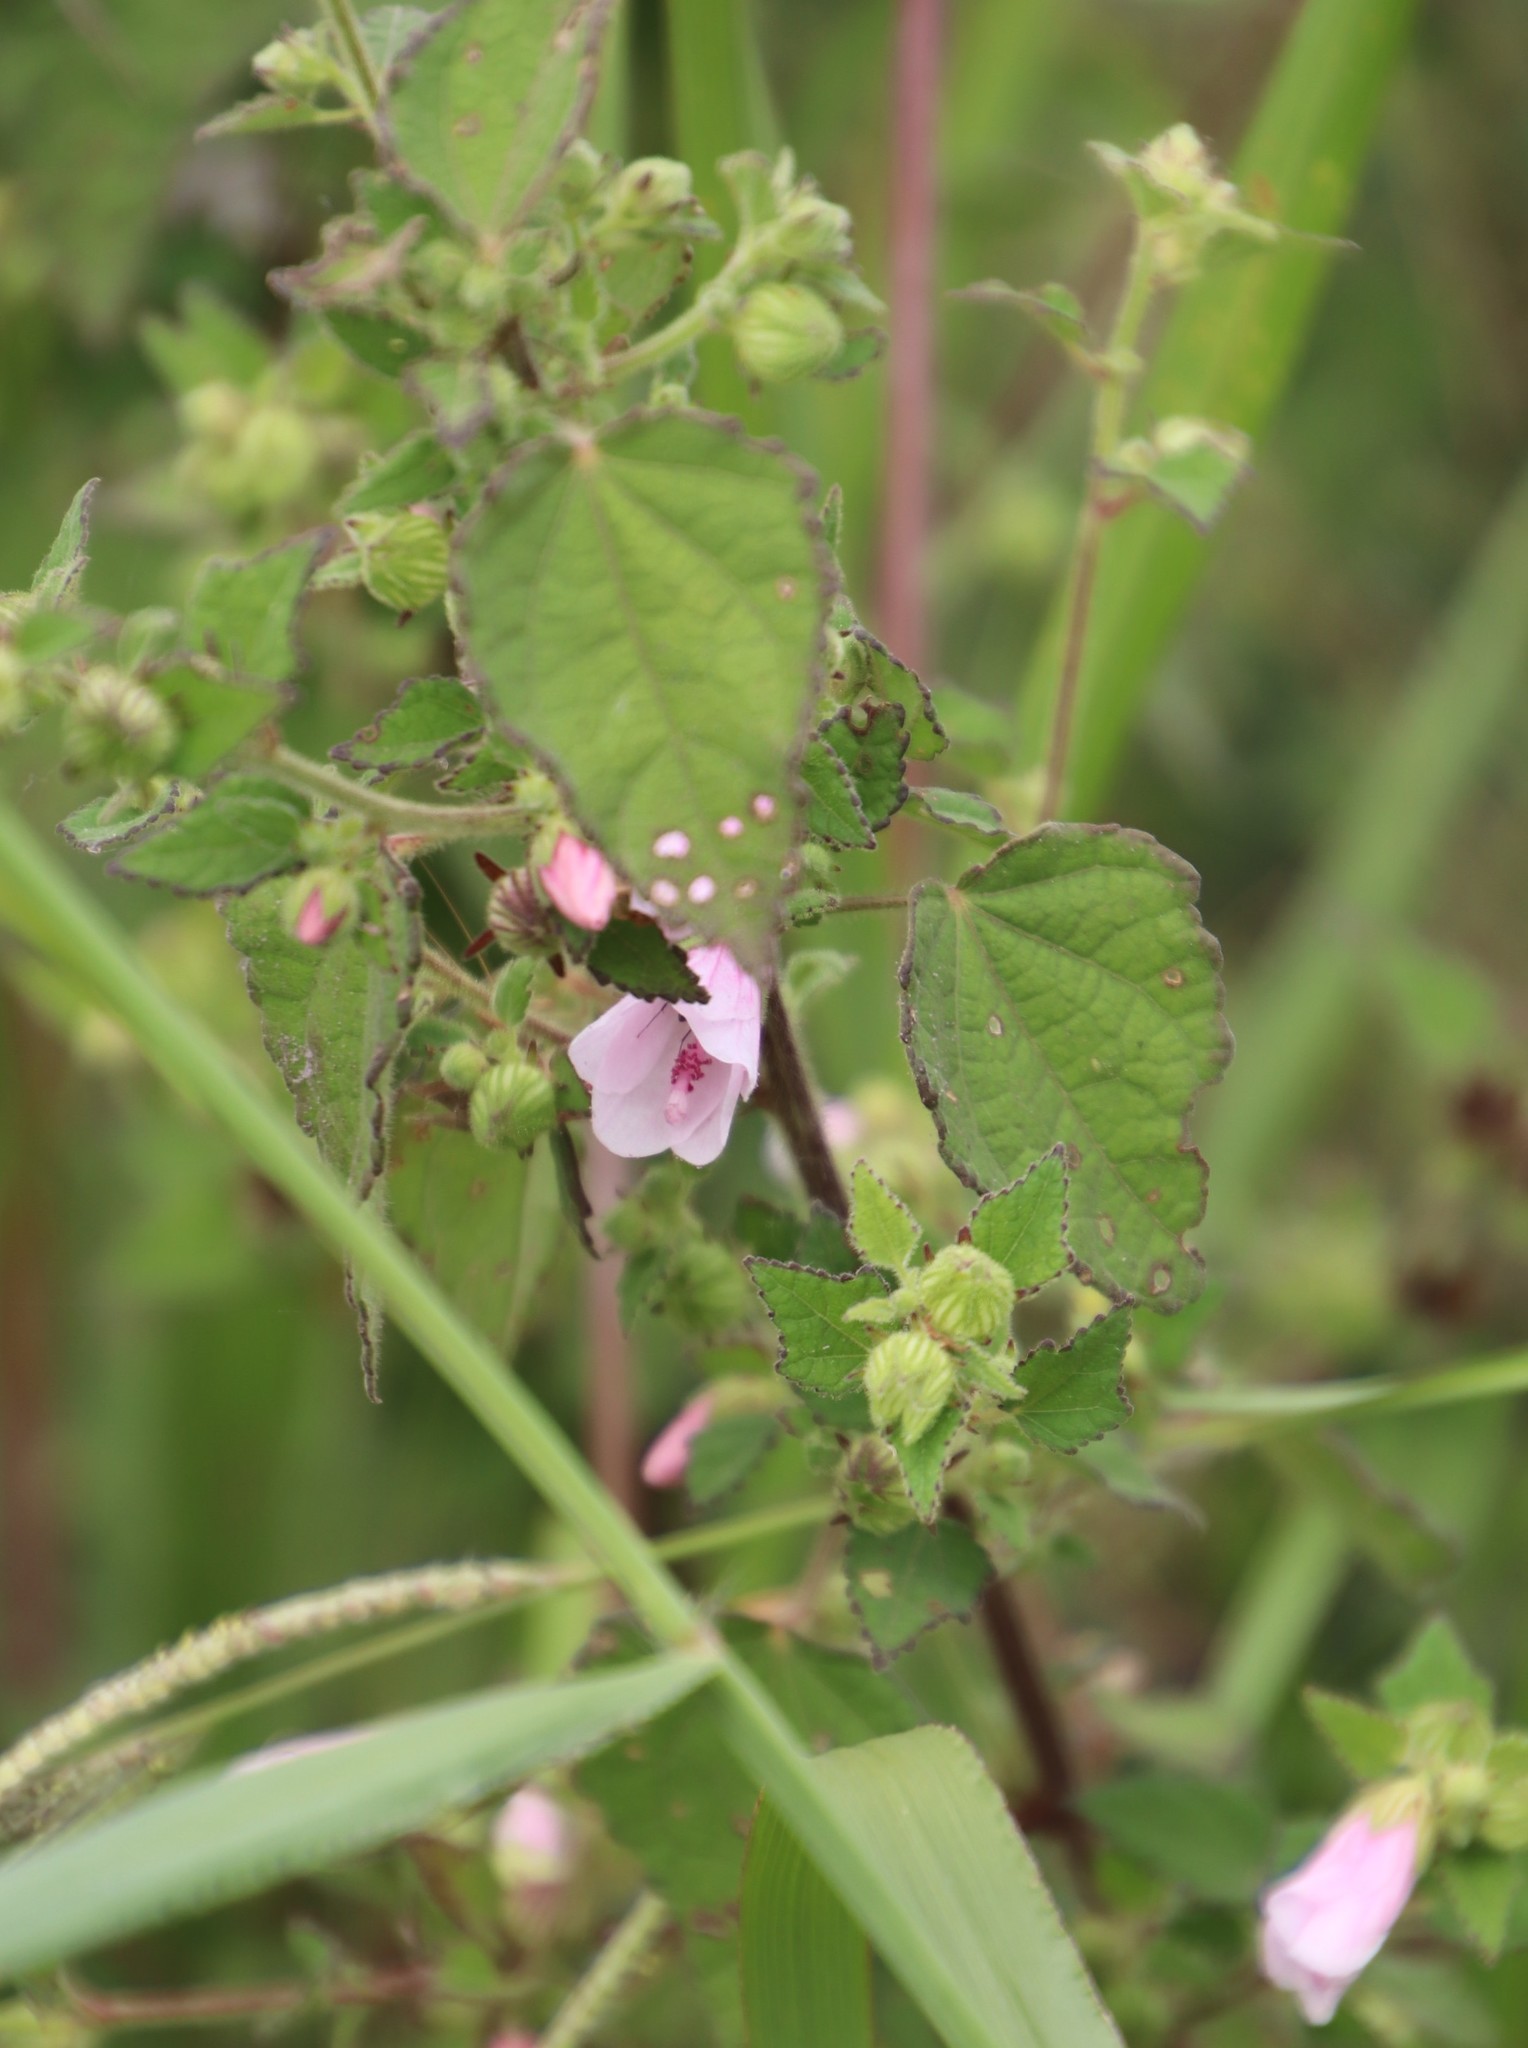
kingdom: Plantae
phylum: Tracheophyta
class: Magnoliopsida
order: Malvales
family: Malvaceae
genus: Urena
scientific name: Urena lobata
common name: Caesarweed
